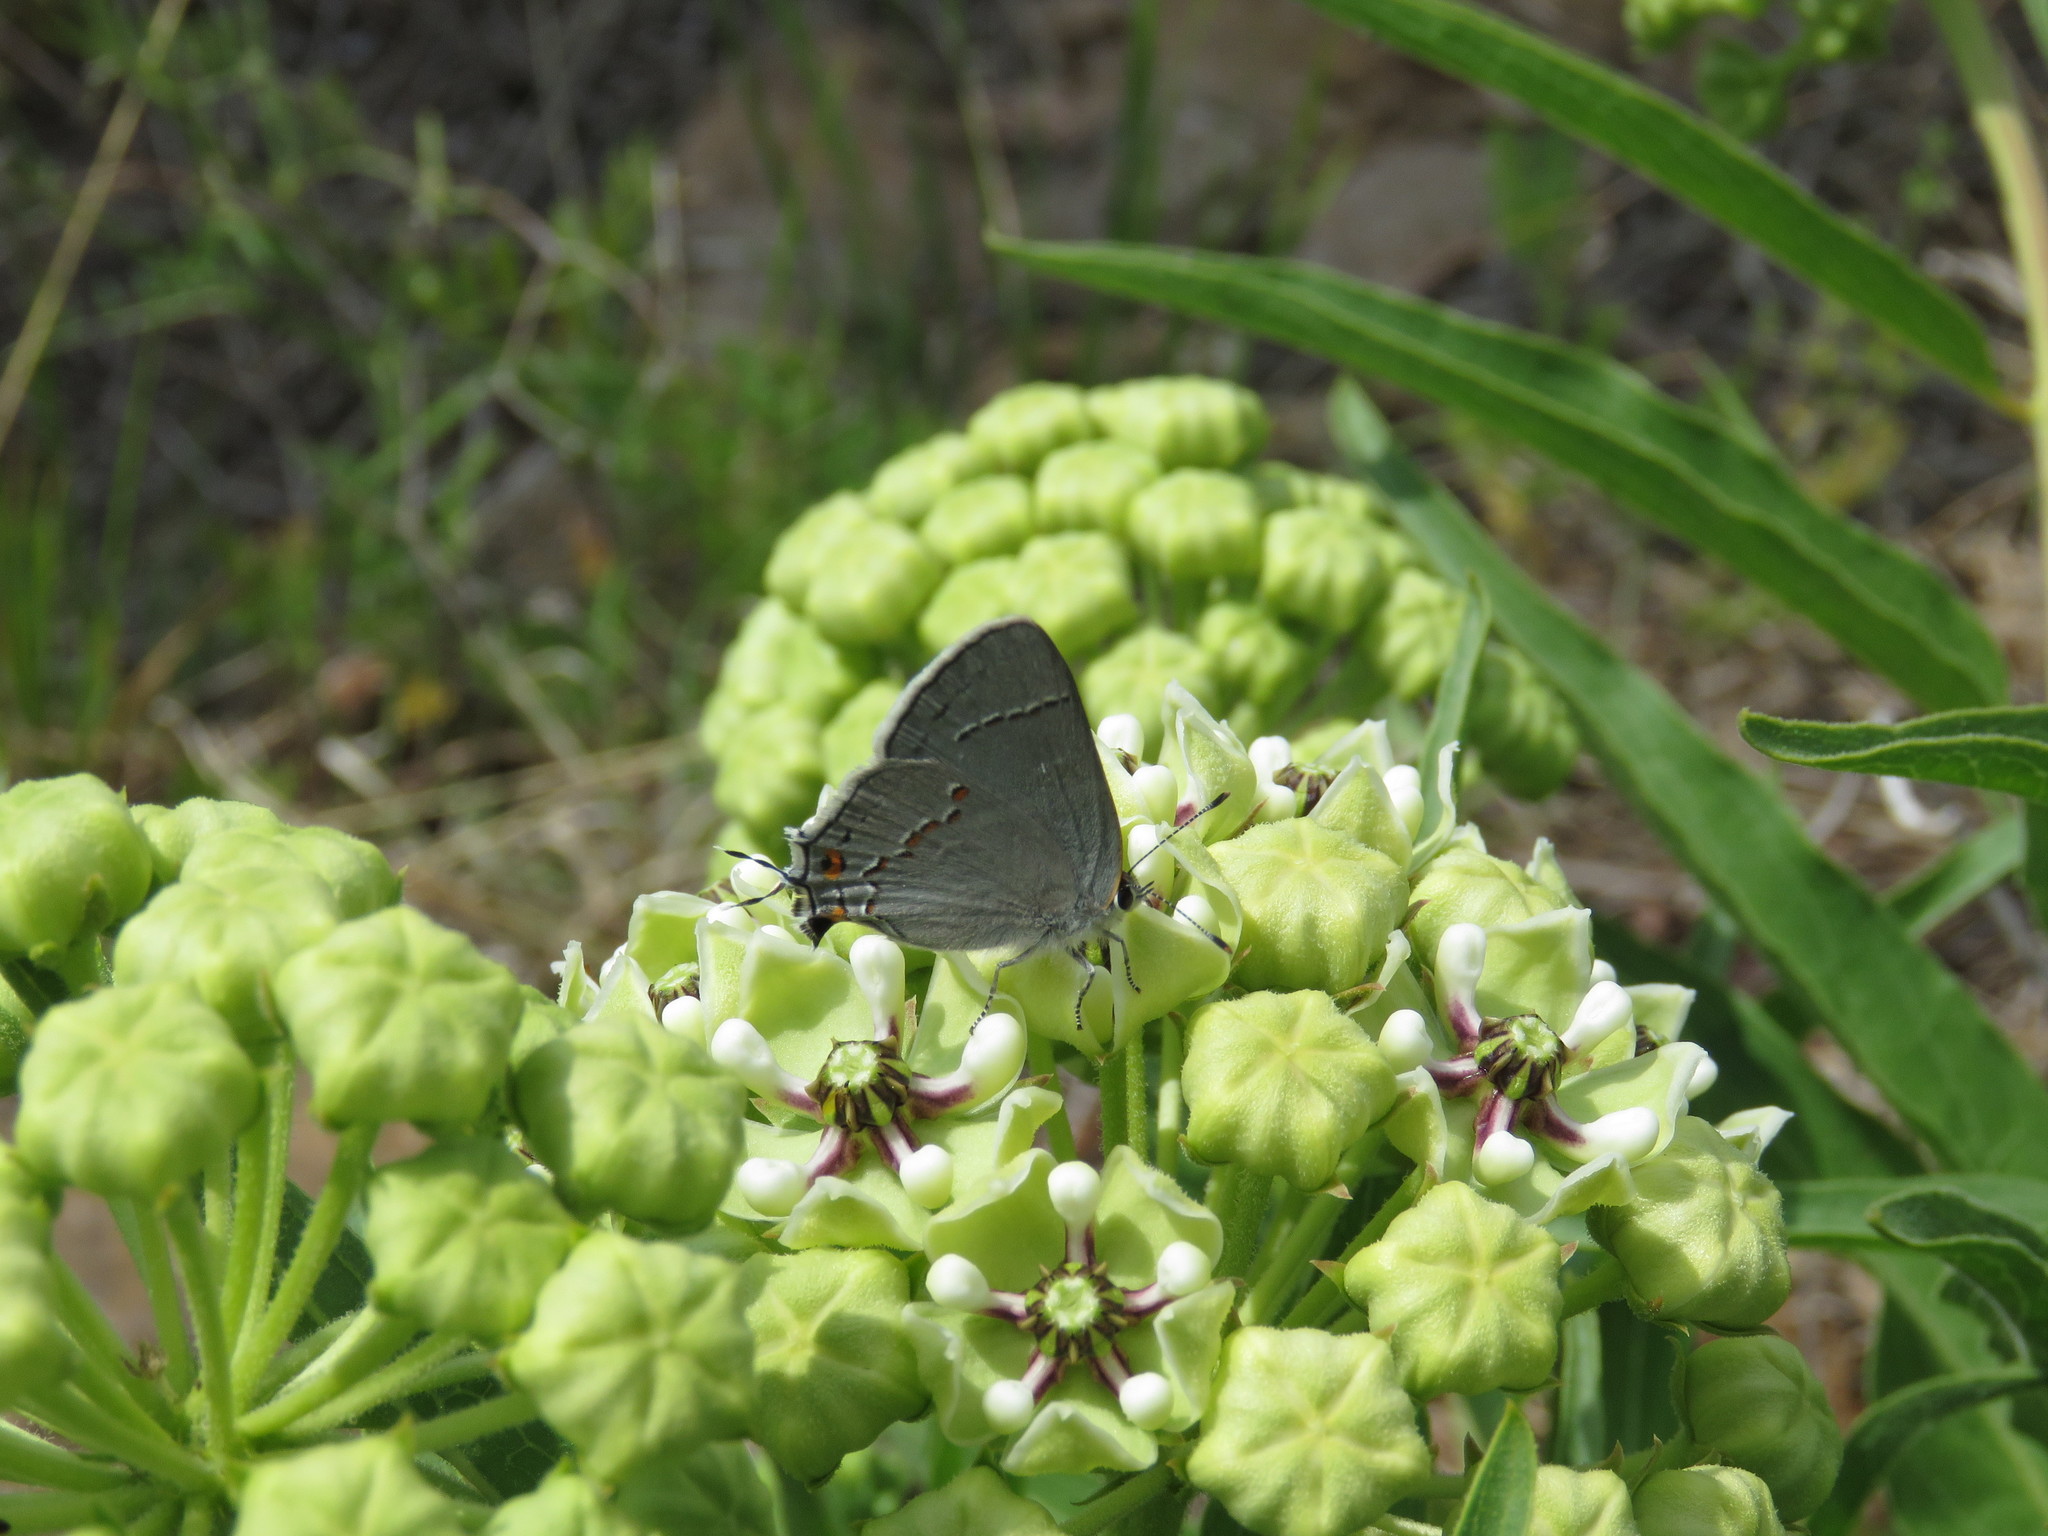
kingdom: Animalia
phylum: Arthropoda
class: Insecta
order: Lepidoptera
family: Lycaenidae
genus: Strymon
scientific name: Strymon melinus
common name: Gray hairstreak
